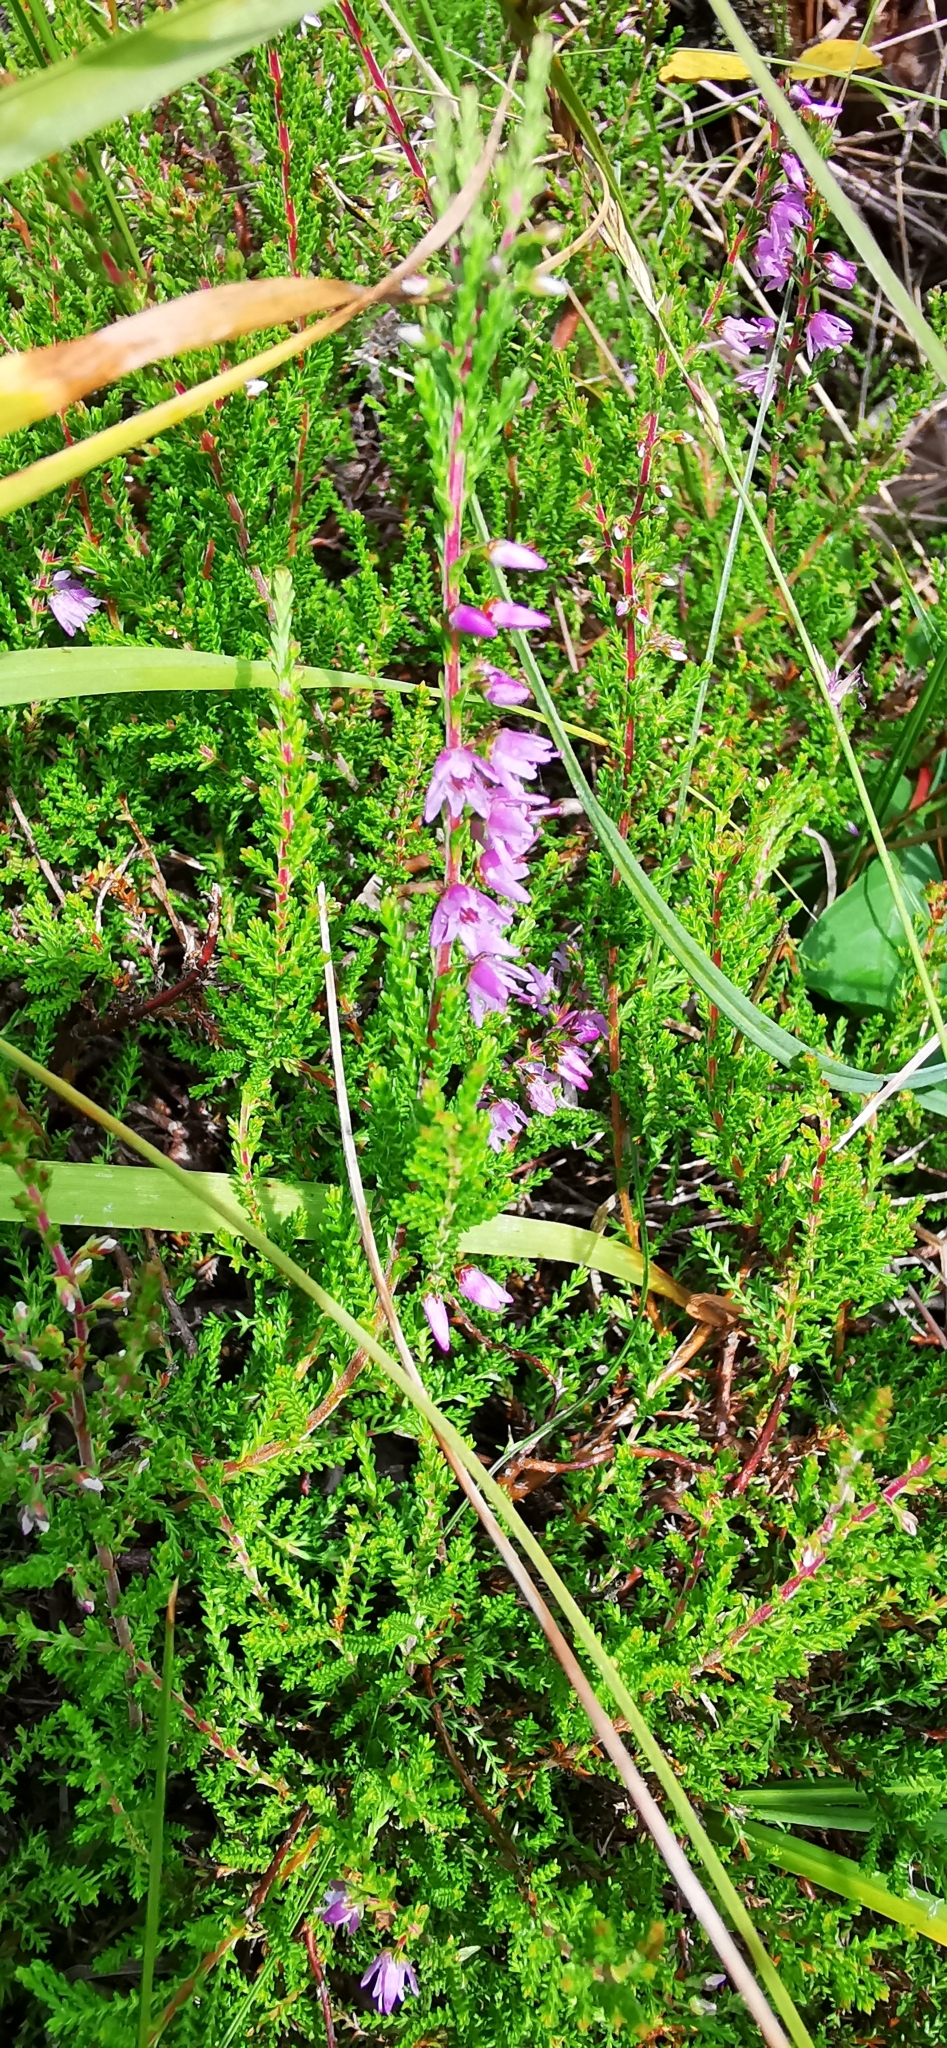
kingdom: Plantae
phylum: Tracheophyta
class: Magnoliopsida
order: Ericales
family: Ericaceae
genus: Calluna
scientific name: Calluna vulgaris
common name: Heather
